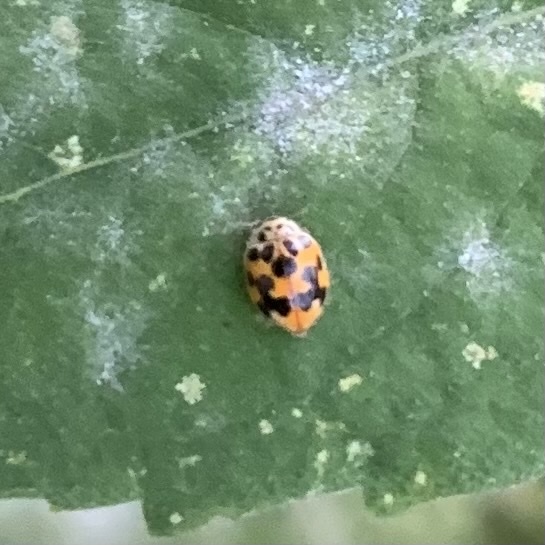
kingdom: Animalia
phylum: Arthropoda
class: Insecta
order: Coleoptera
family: Coccinellidae
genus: Psyllobora
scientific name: Psyllobora vigintimaculata
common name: Ladybird beetle
